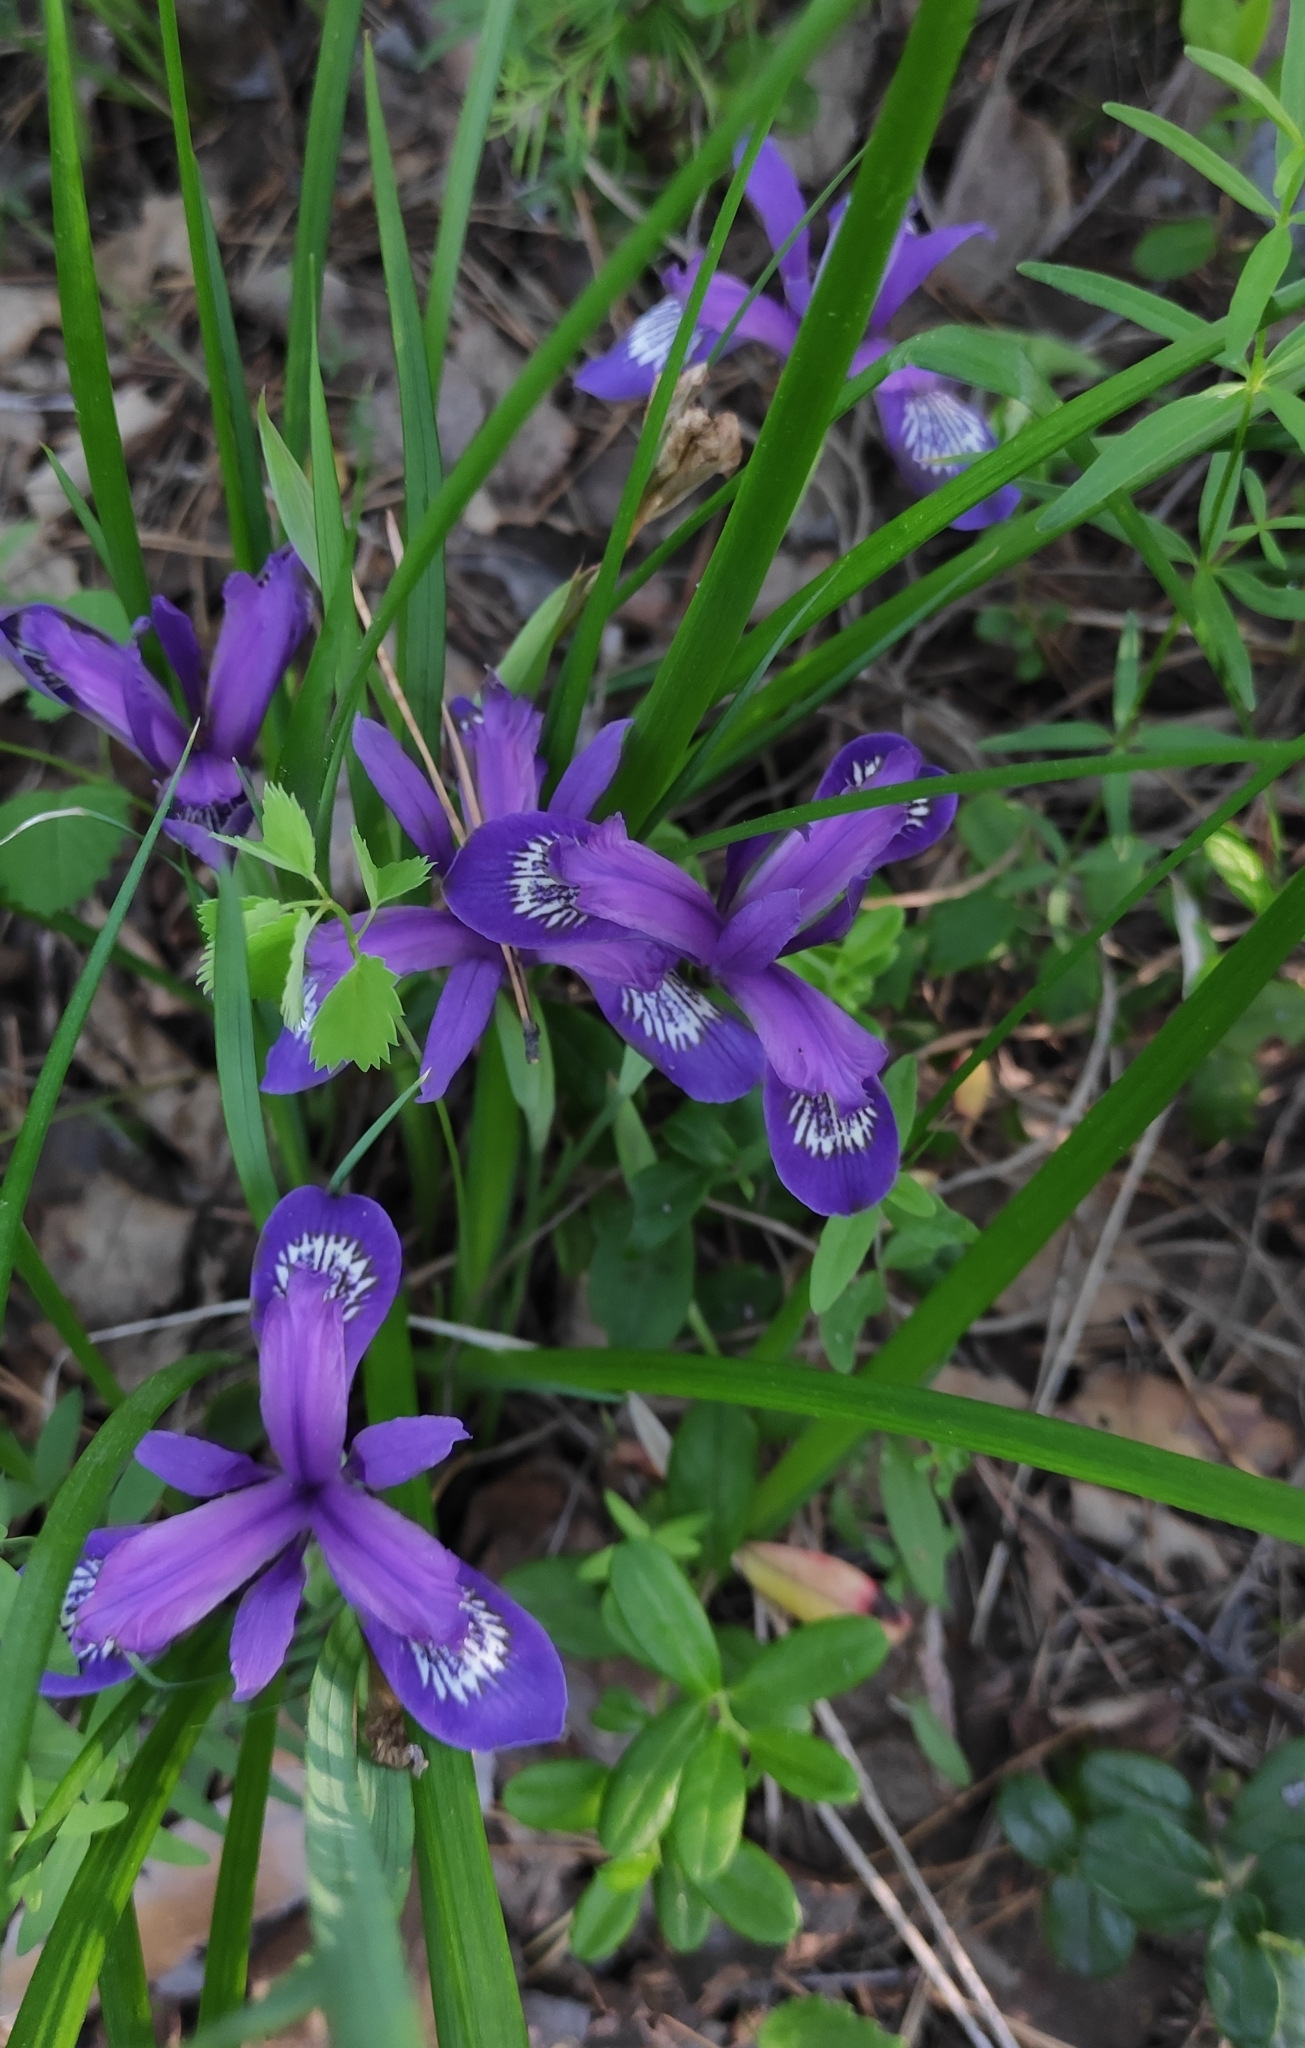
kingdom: Plantae
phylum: Tracheophyta
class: Liliopsida
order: Asparagales
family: Iridaceae
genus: Iris
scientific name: Iris ruthenica
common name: Purple-bract iris
